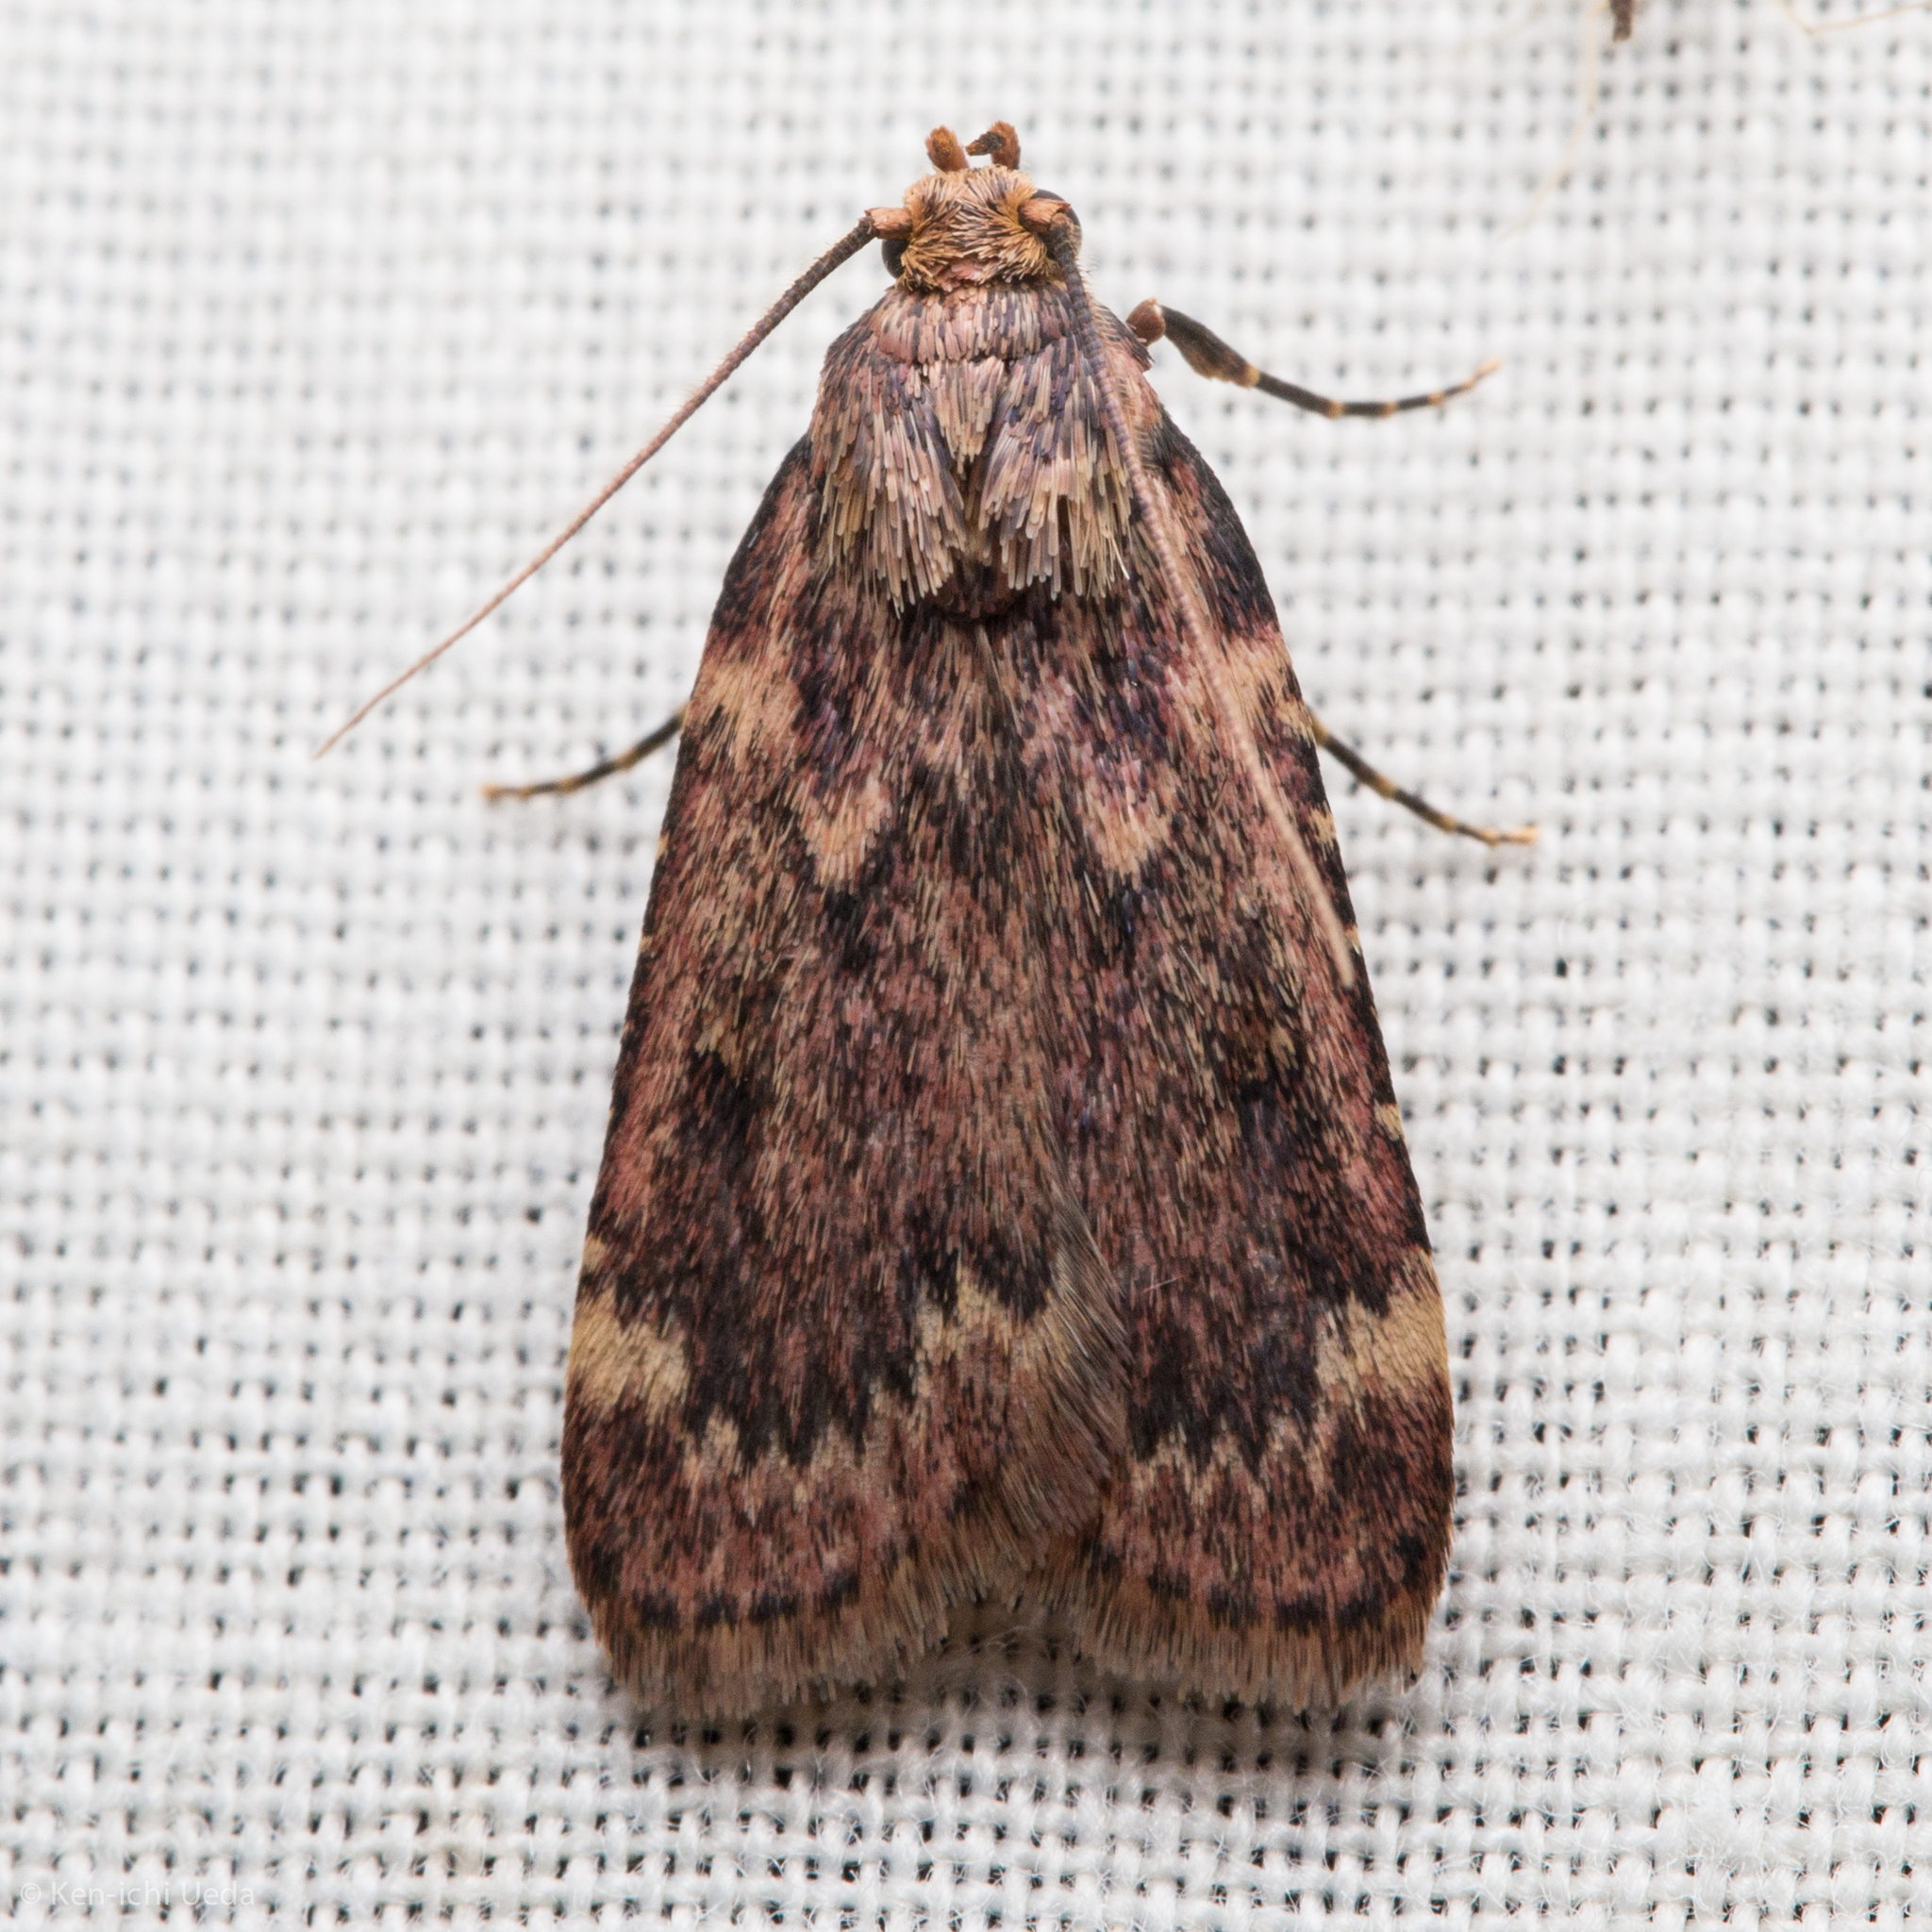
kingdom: Animalia
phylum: Arthropoda
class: Insecta
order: Lepidoptera
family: Pyralidae
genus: Aglossa
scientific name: Aglossa disciferalis
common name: Pink-masked pyralid moth
